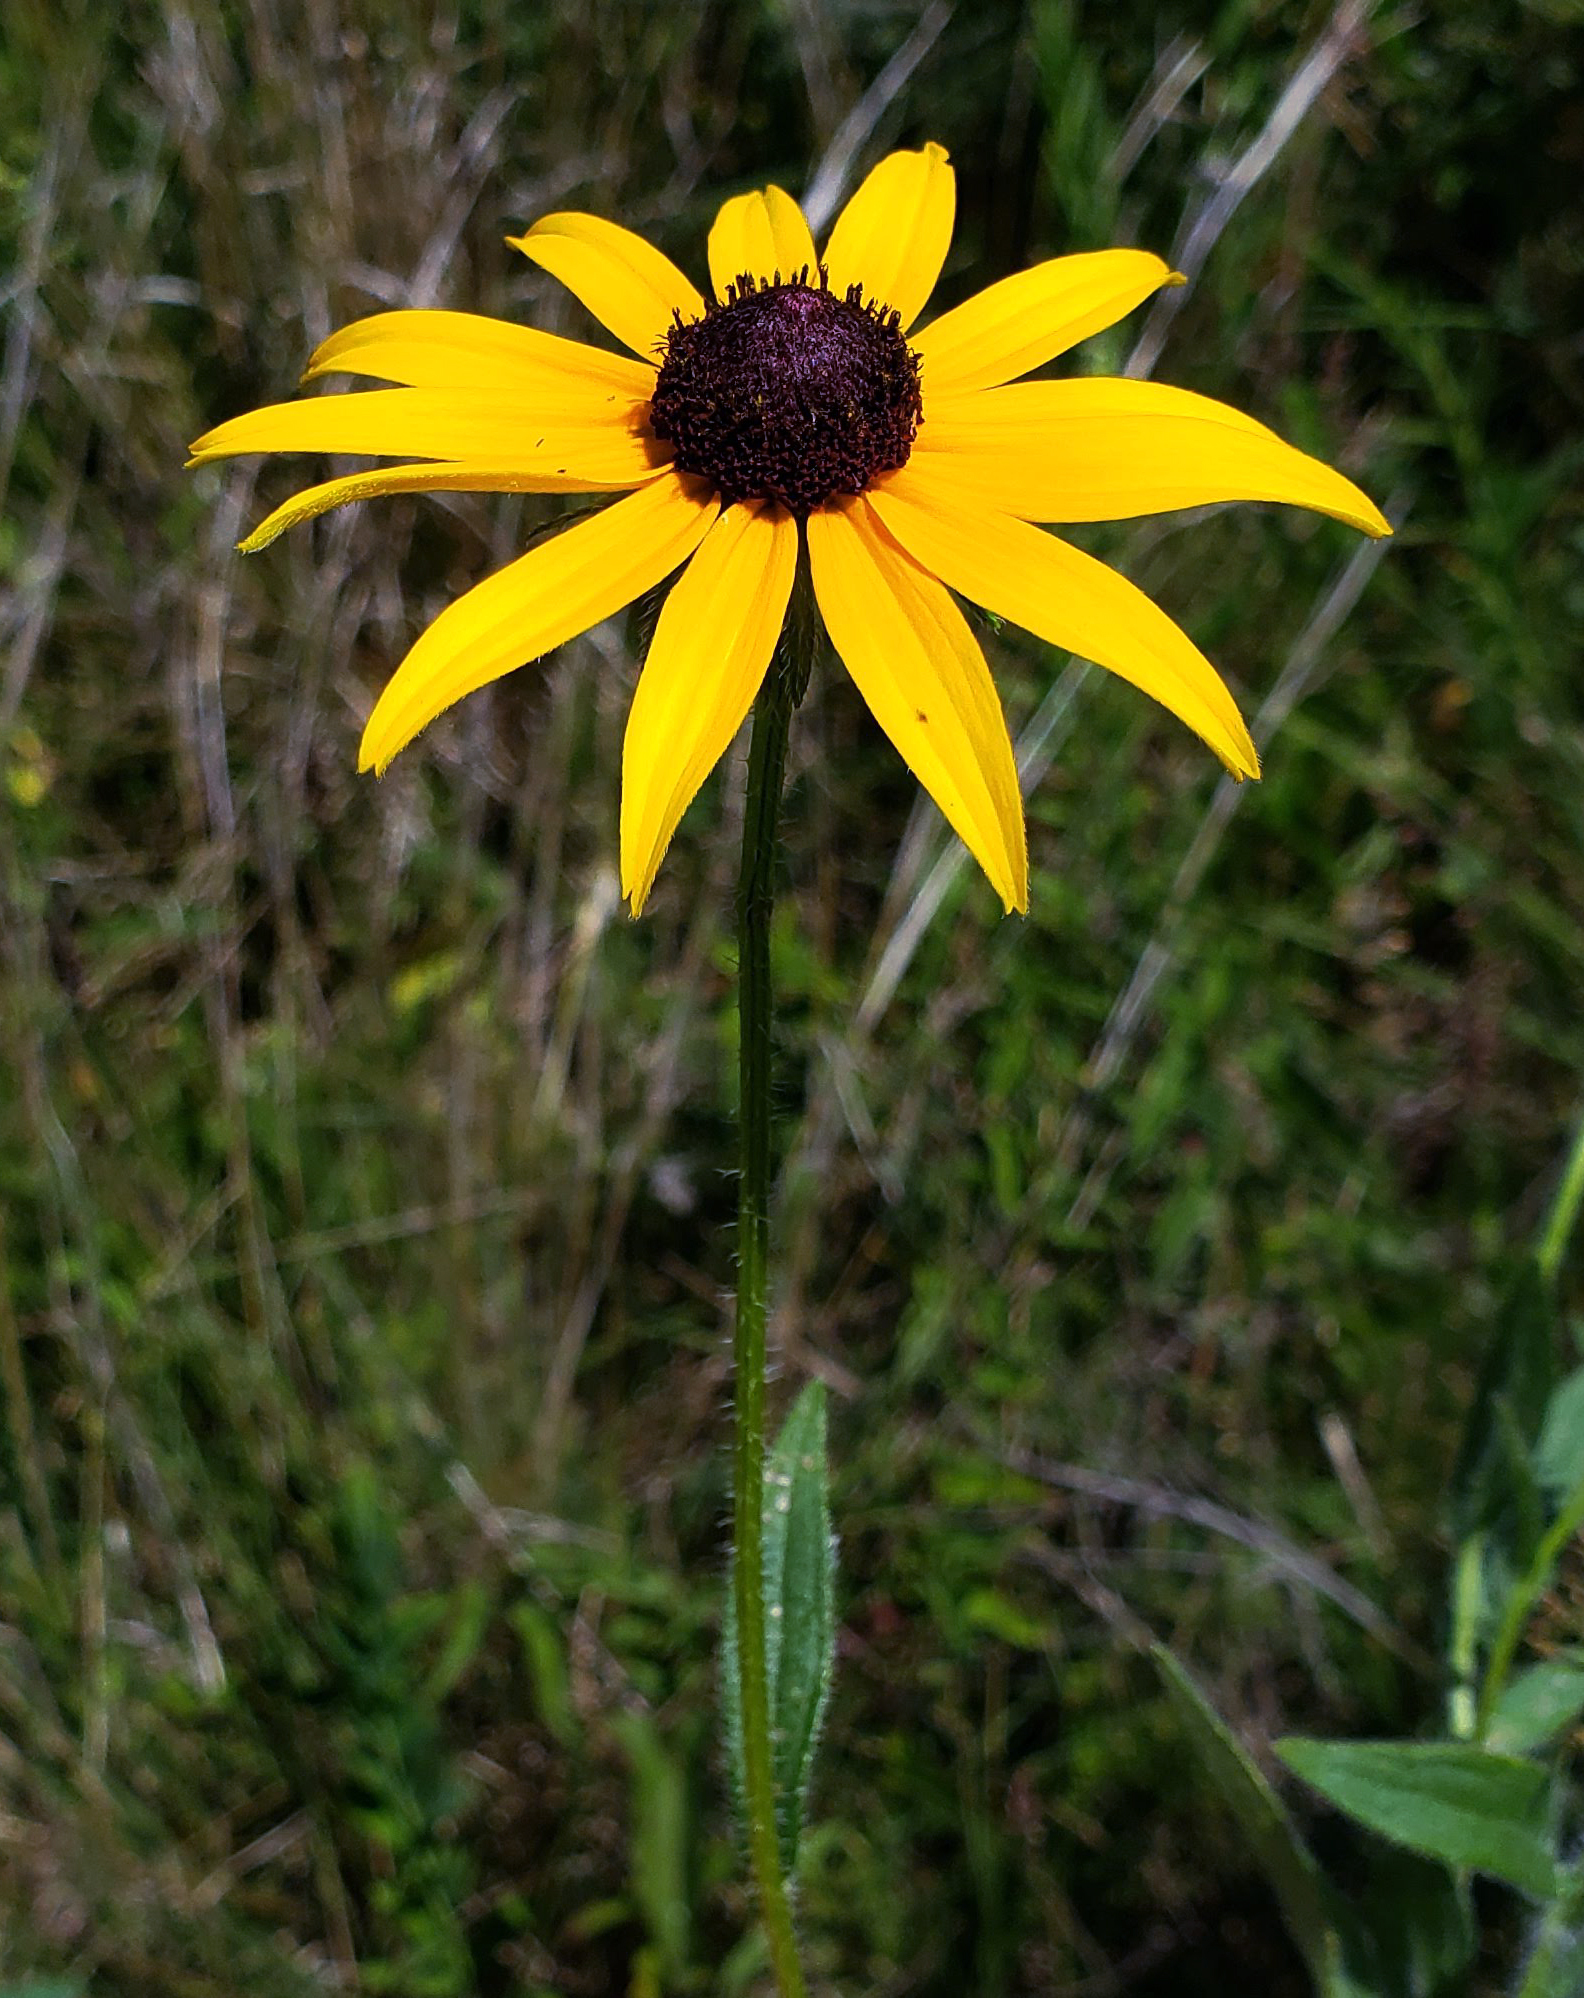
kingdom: Plantae
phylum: Tracheophyta
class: Magnoliopsida
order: Asterales
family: Asteraceae
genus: Rudbeckia
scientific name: Rudbeckia hirta
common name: Black-eyed-susan
